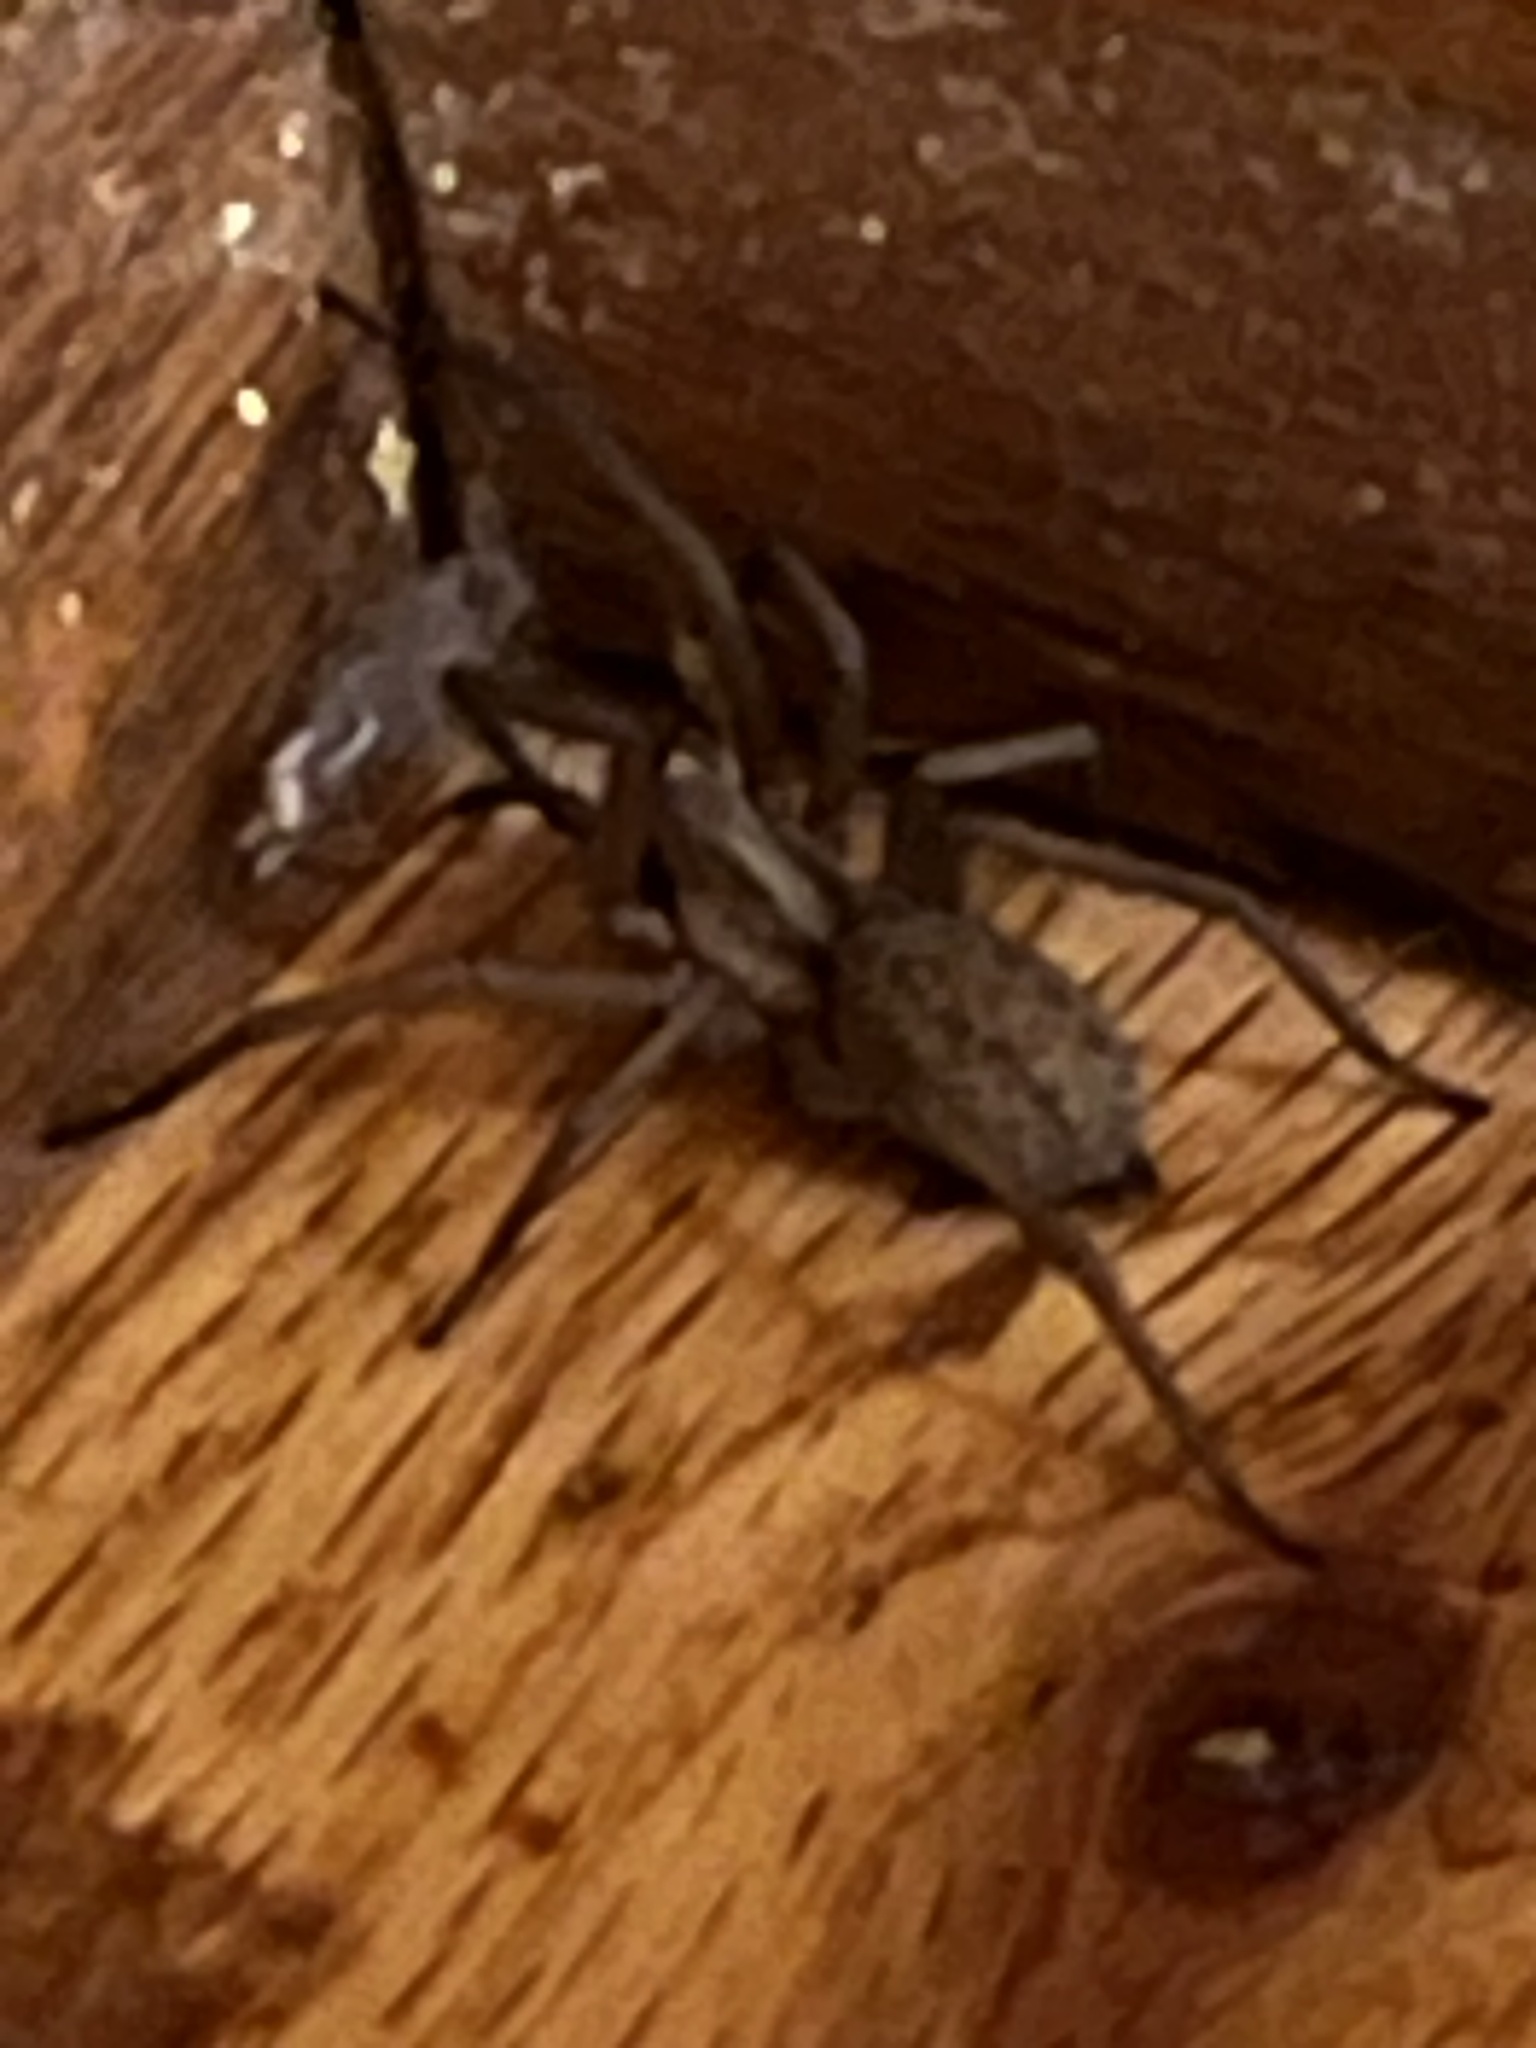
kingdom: Animalia
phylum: Arthropoda
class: Arachnida
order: Araneae
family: Agelenidae
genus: Eratigena
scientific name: Eratigena agrestis
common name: Hobo spider
